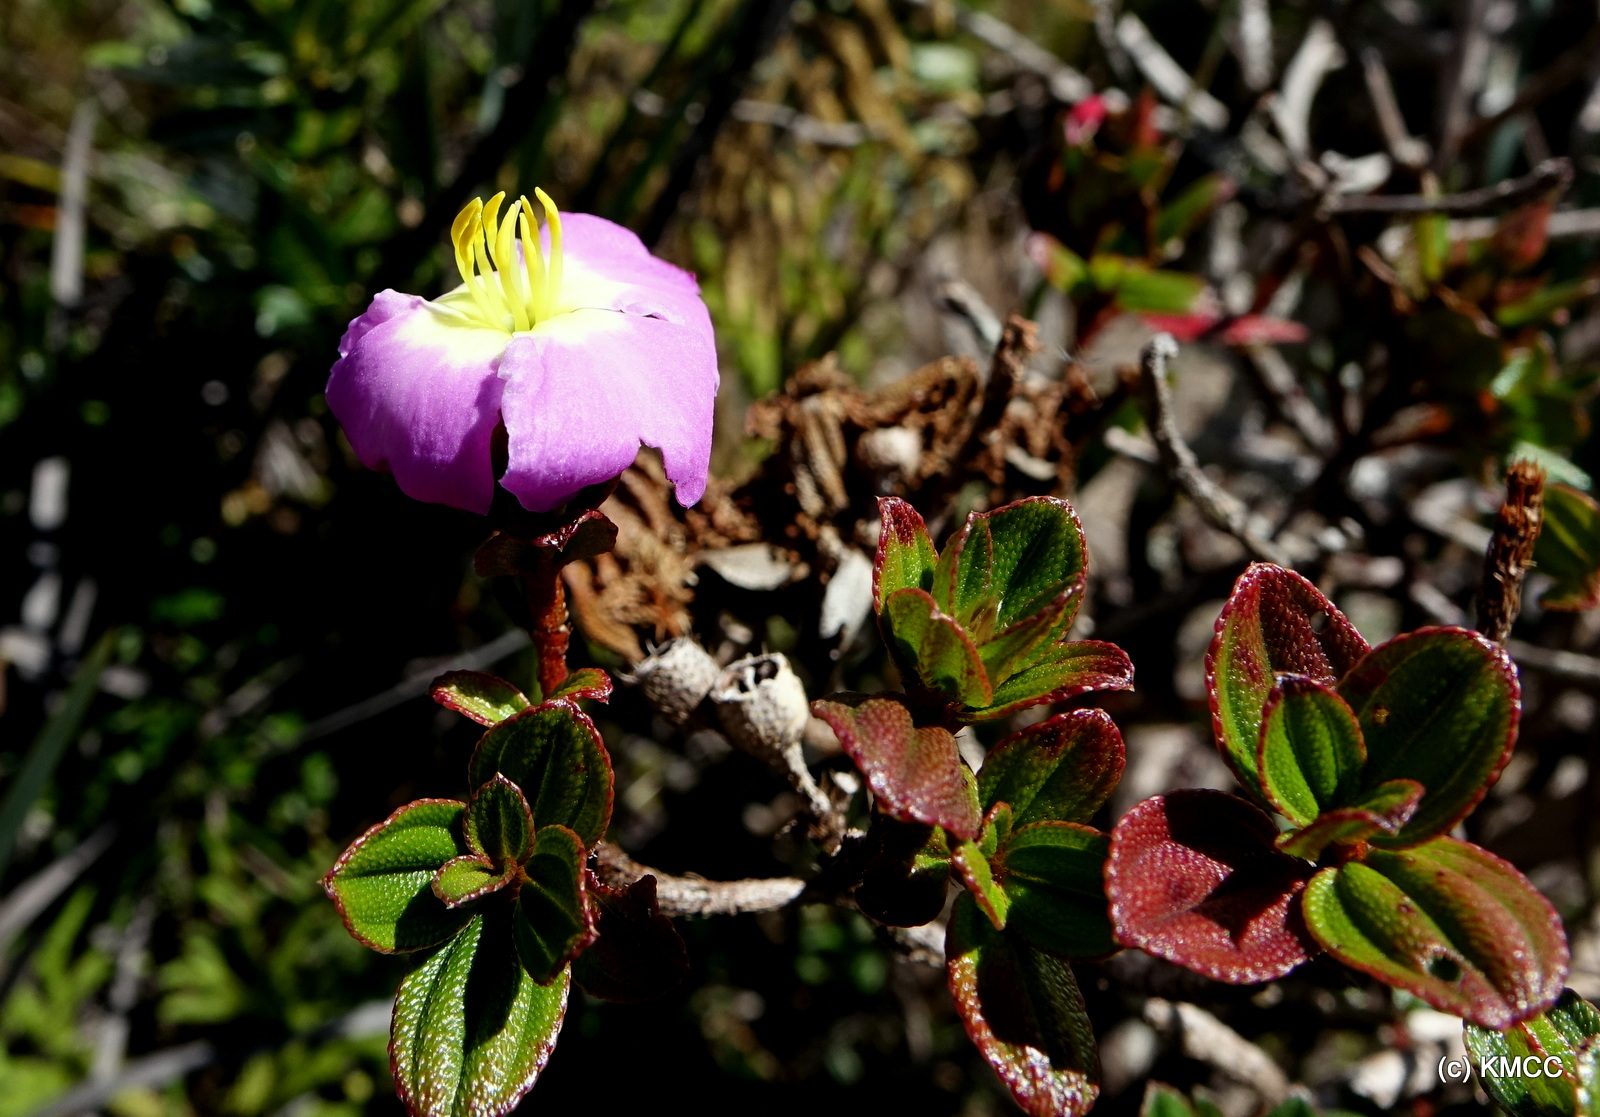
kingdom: Plantae
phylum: Tracheophyta
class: Magnoliopsida
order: Myrtales
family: Melastomataceae
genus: Rousseauxia
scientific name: Rousseauxia marojejensis
